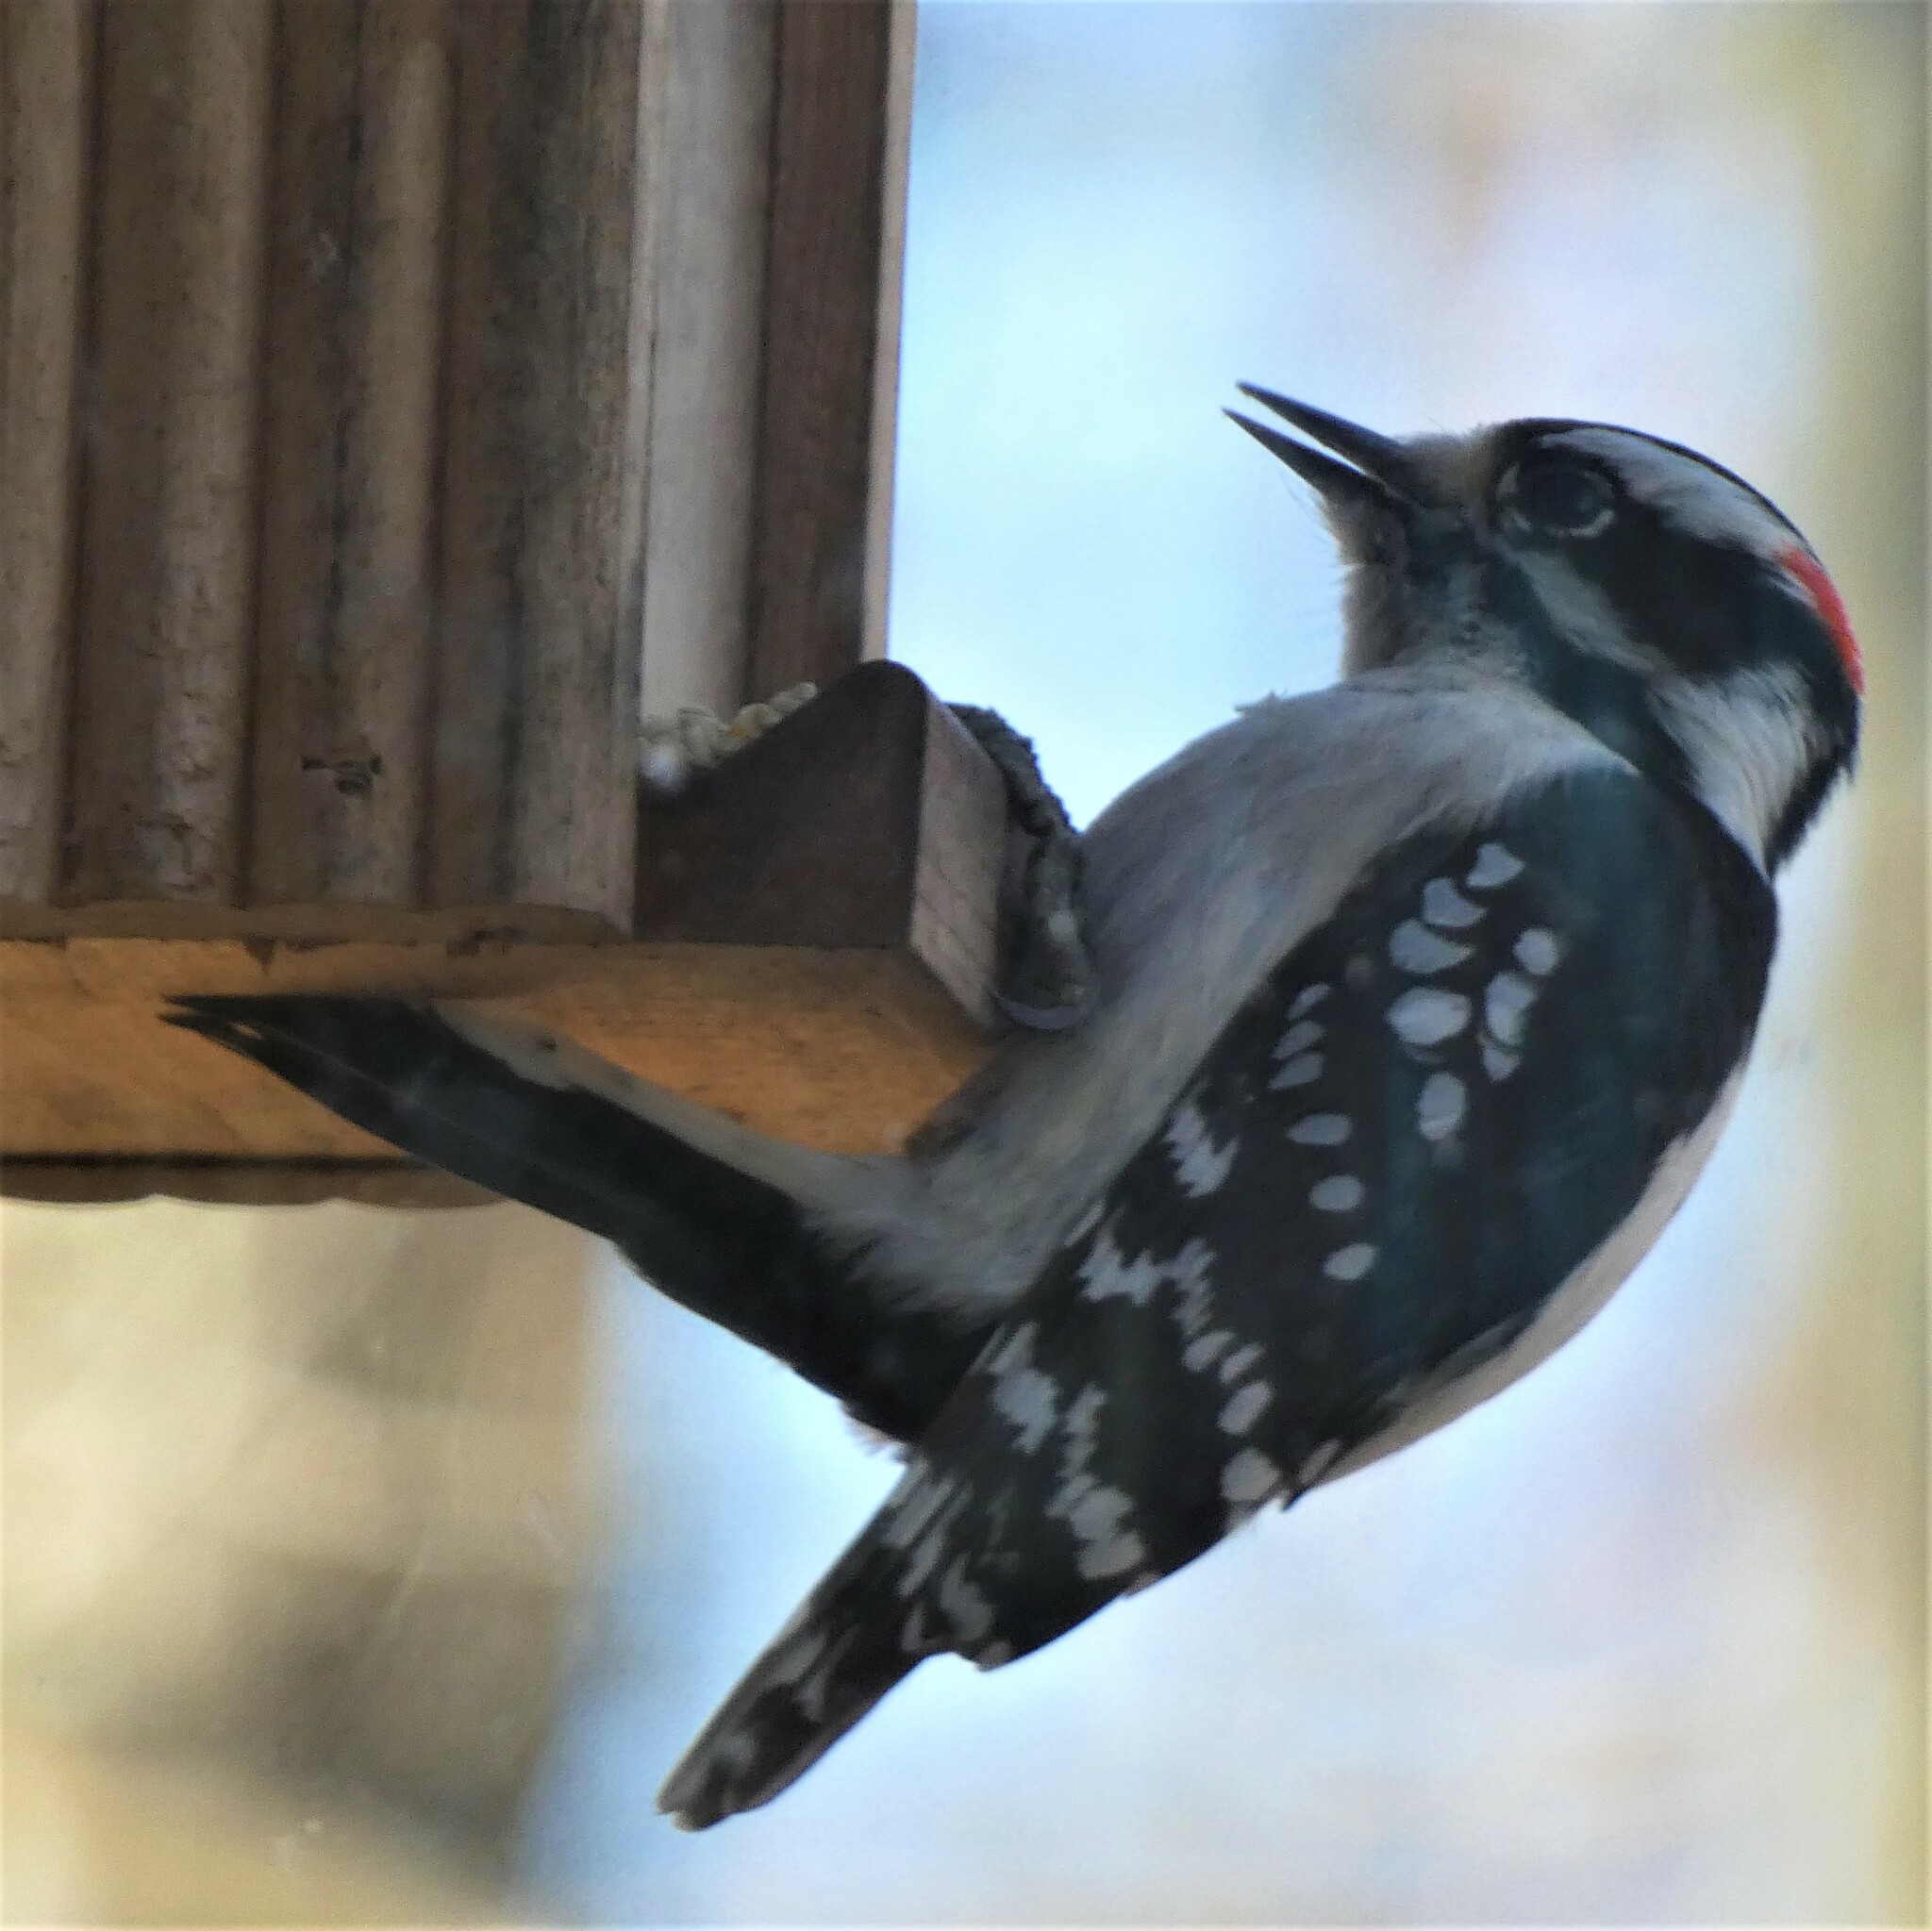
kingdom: Animalia
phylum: Chordata
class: Aves
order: Piciformes
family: Picidae
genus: Dryobates
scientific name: Dryobates pubescens
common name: Downy woodpecker
